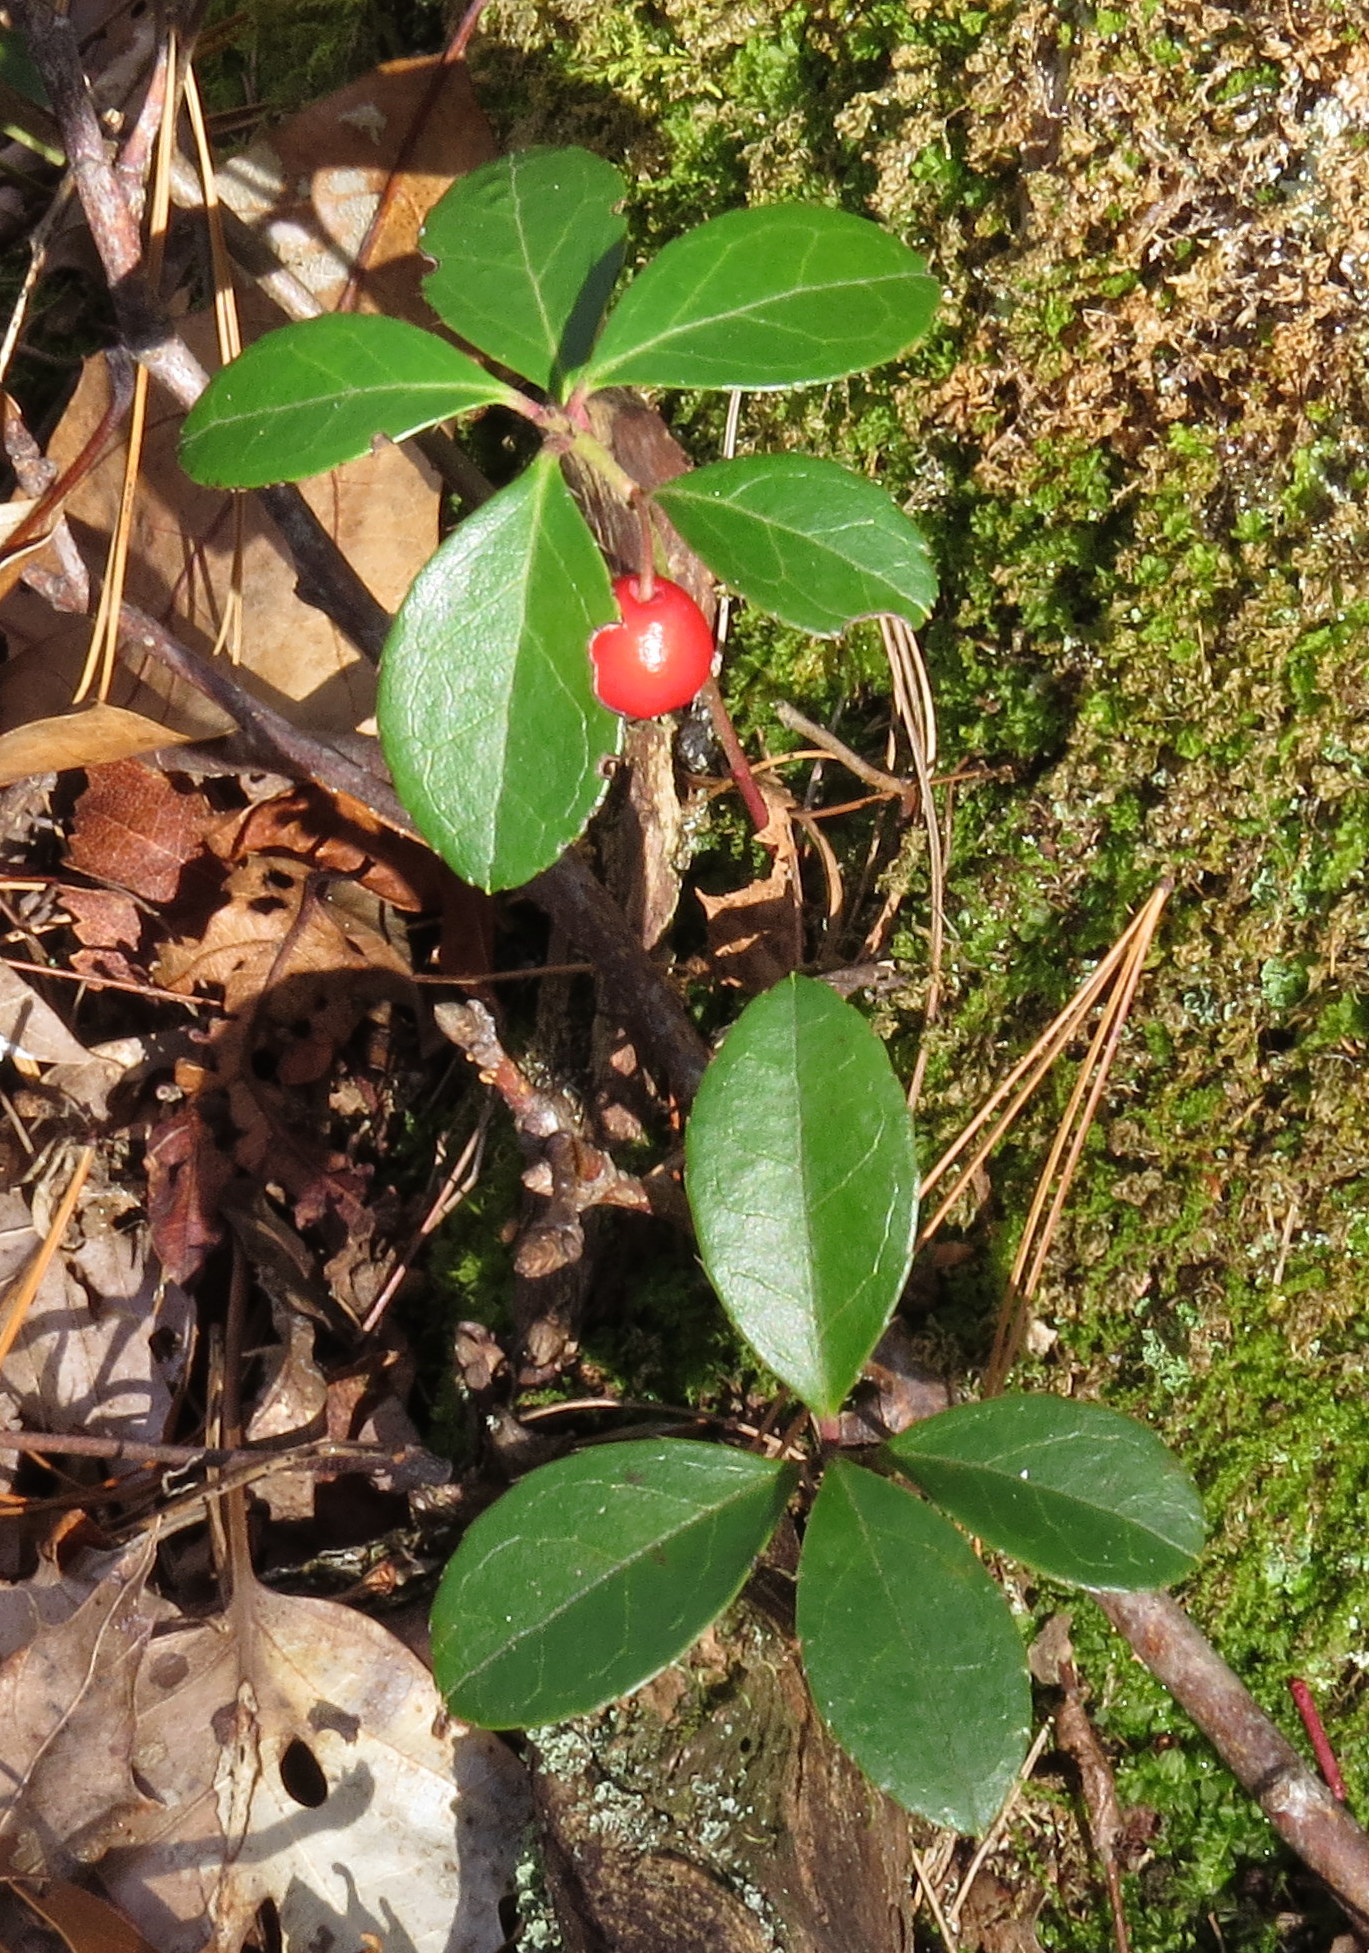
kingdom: Plantae
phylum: Tracheophyta
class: Magnoliopsida
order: Ericales
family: Ericaceae
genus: Gaultheria
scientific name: Gaultheria procumbens
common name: Checkerberry
